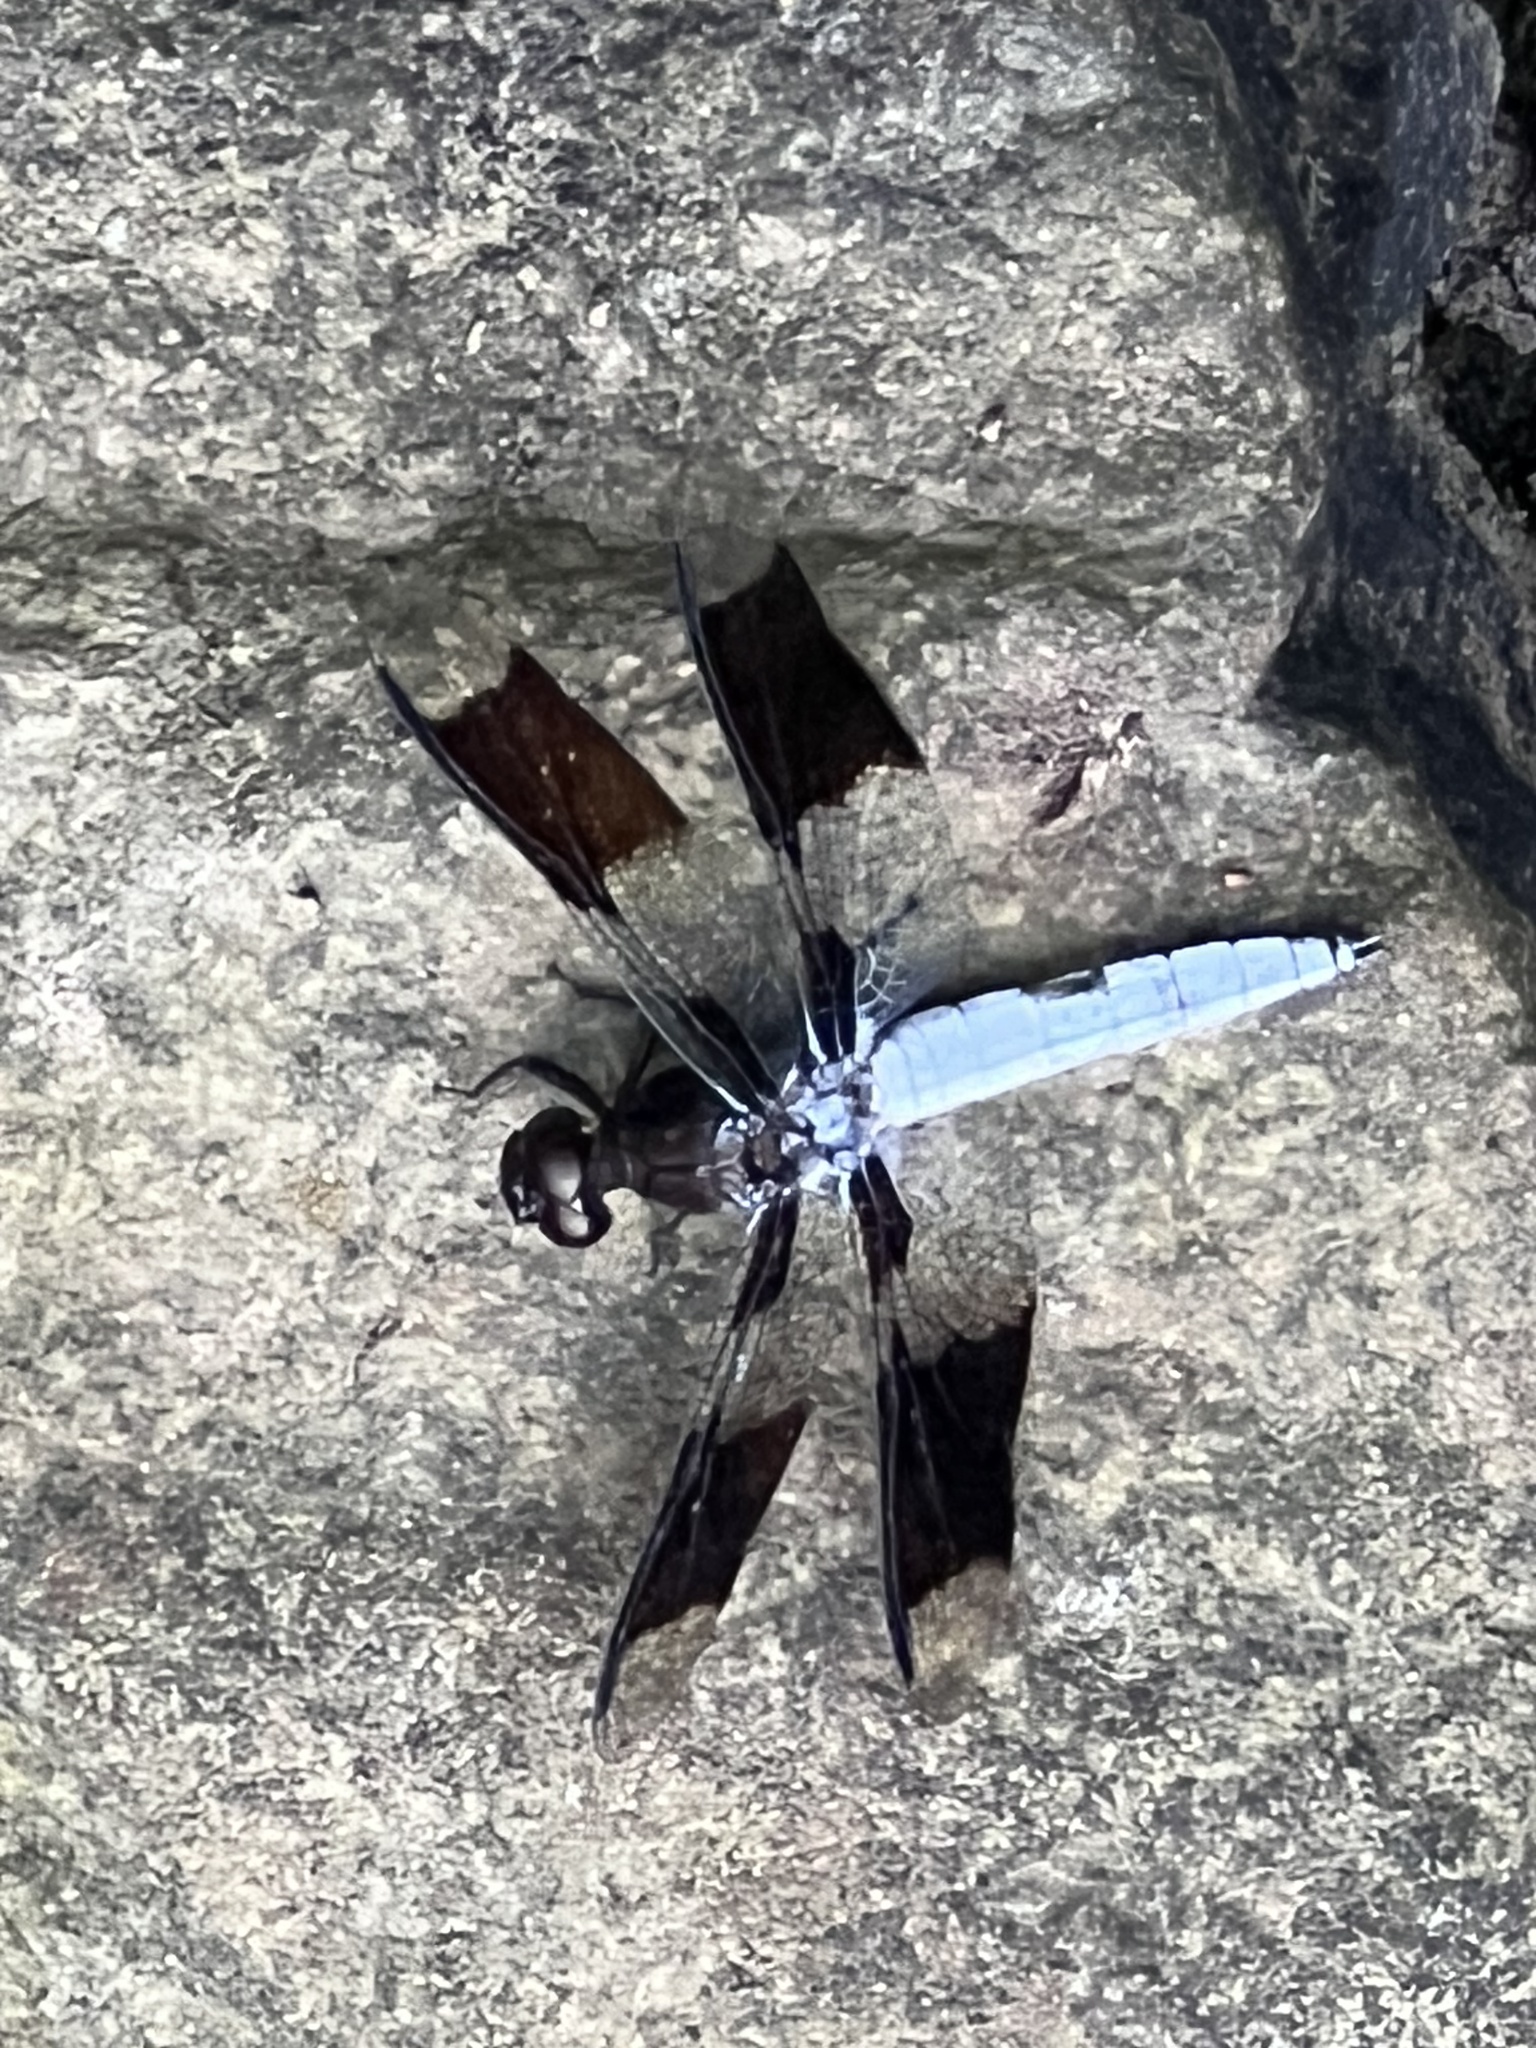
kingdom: Animalia
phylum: Arthropoda
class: Insecta
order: Odonata
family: Libellulidae
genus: Plathemis
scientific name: Plathemis lydia
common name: Common whitetail
